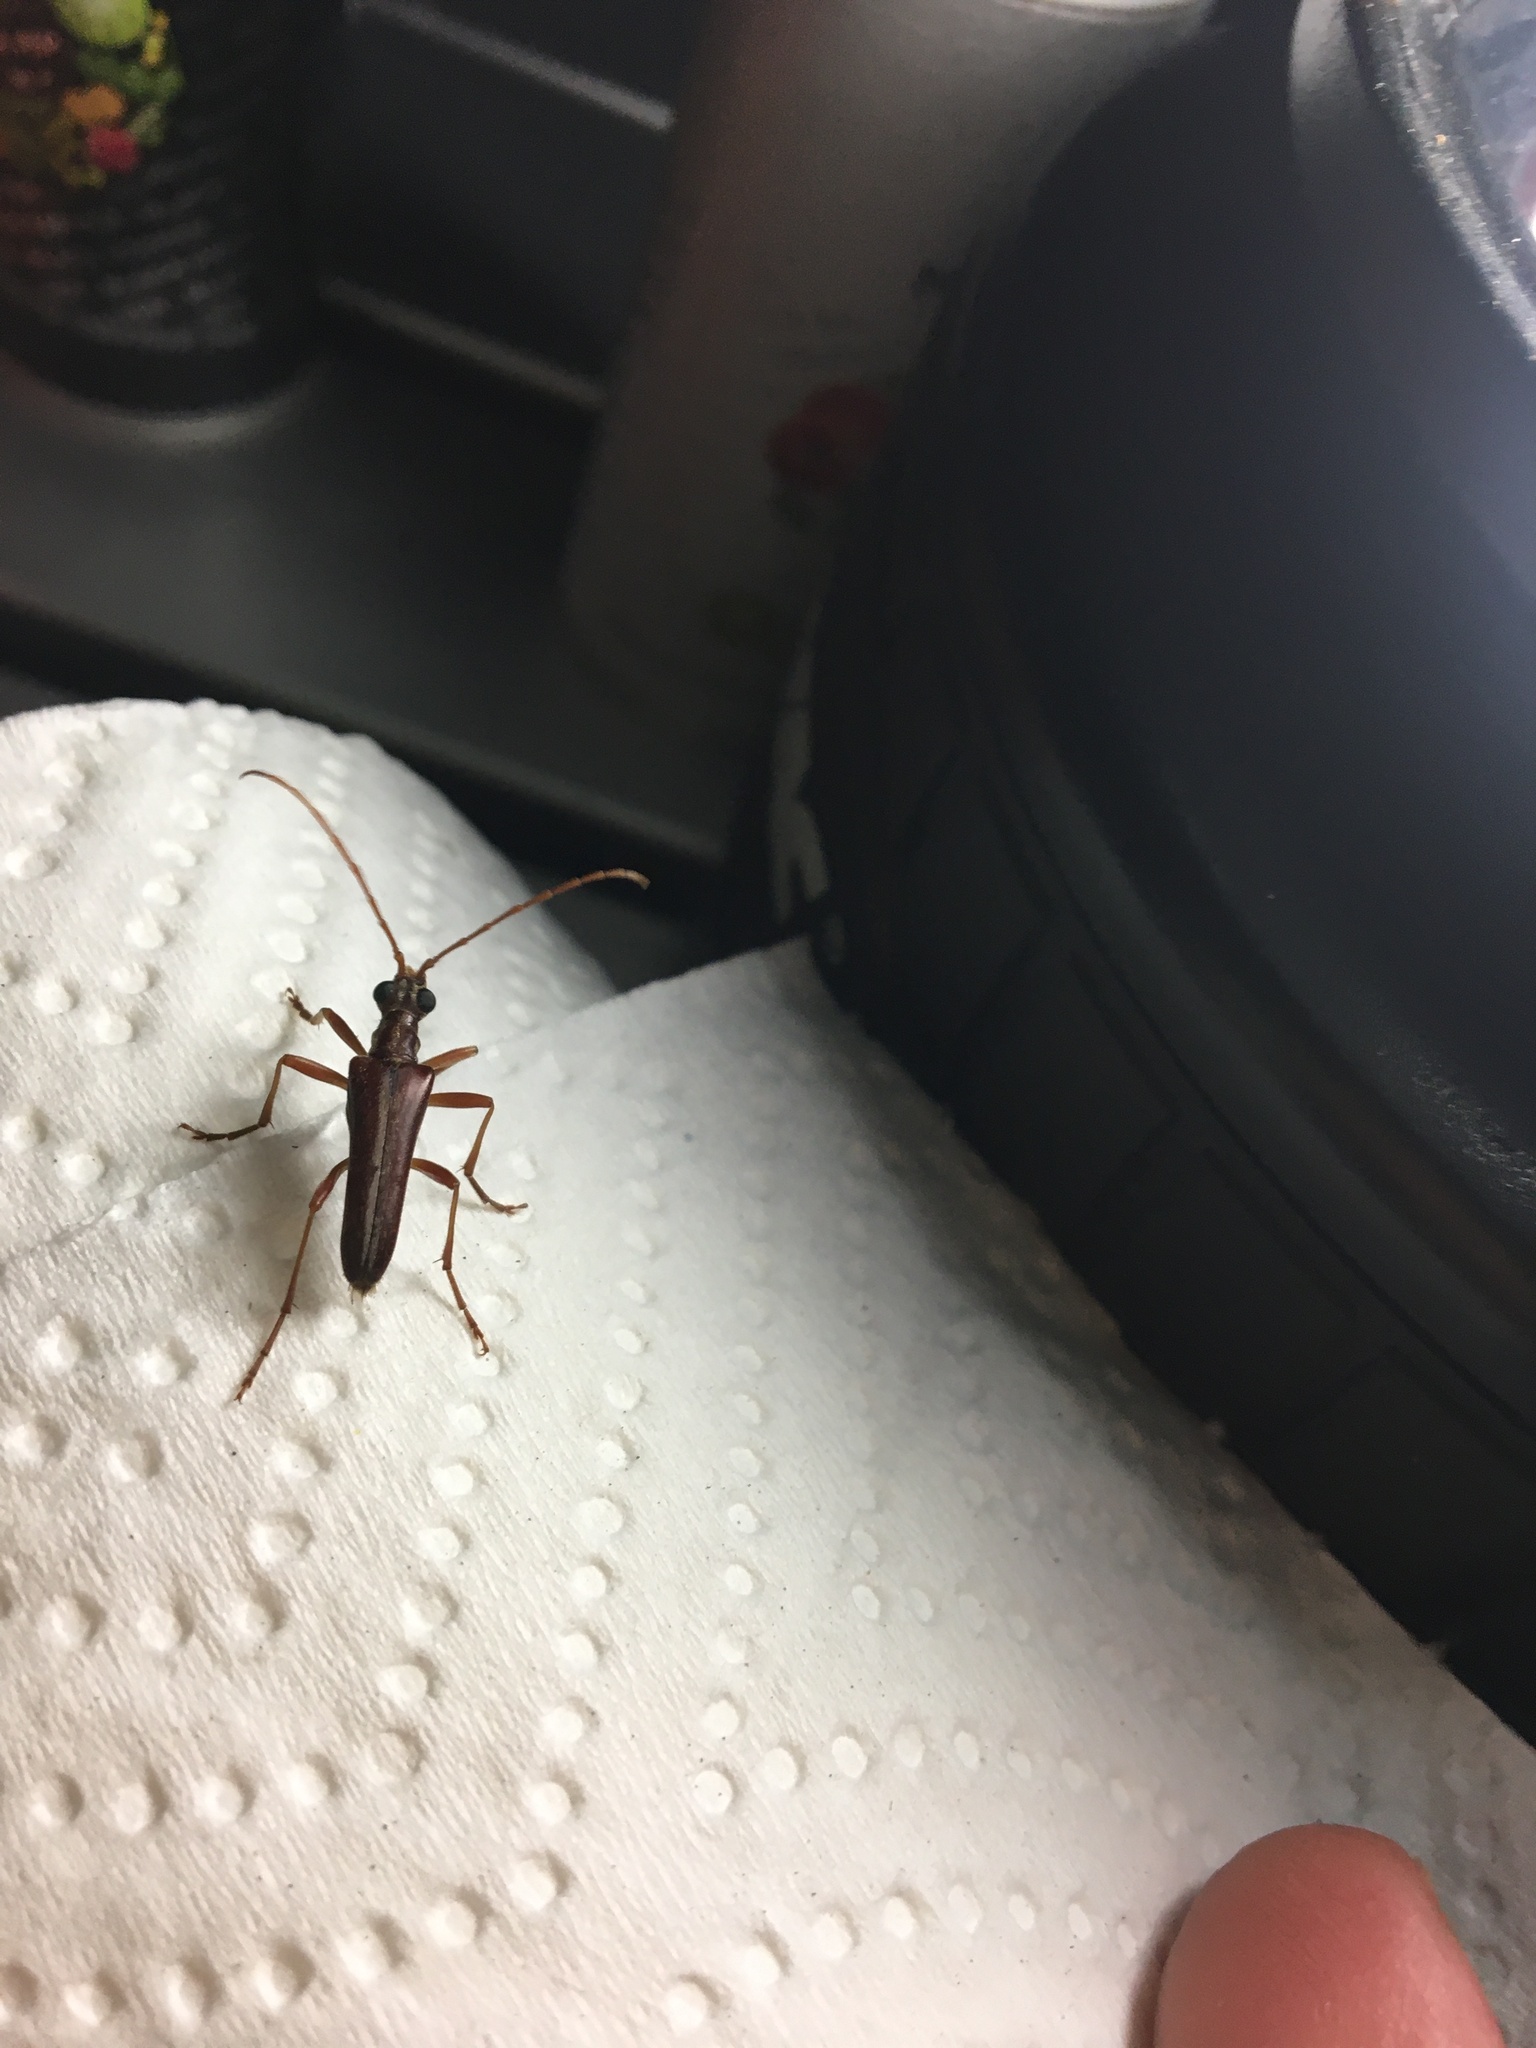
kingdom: Animalia
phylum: Arthropoda
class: Insecta
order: Coleoptera
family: Cerambycidae
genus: Stenocorus
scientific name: Stenocorus cinnamopterus
